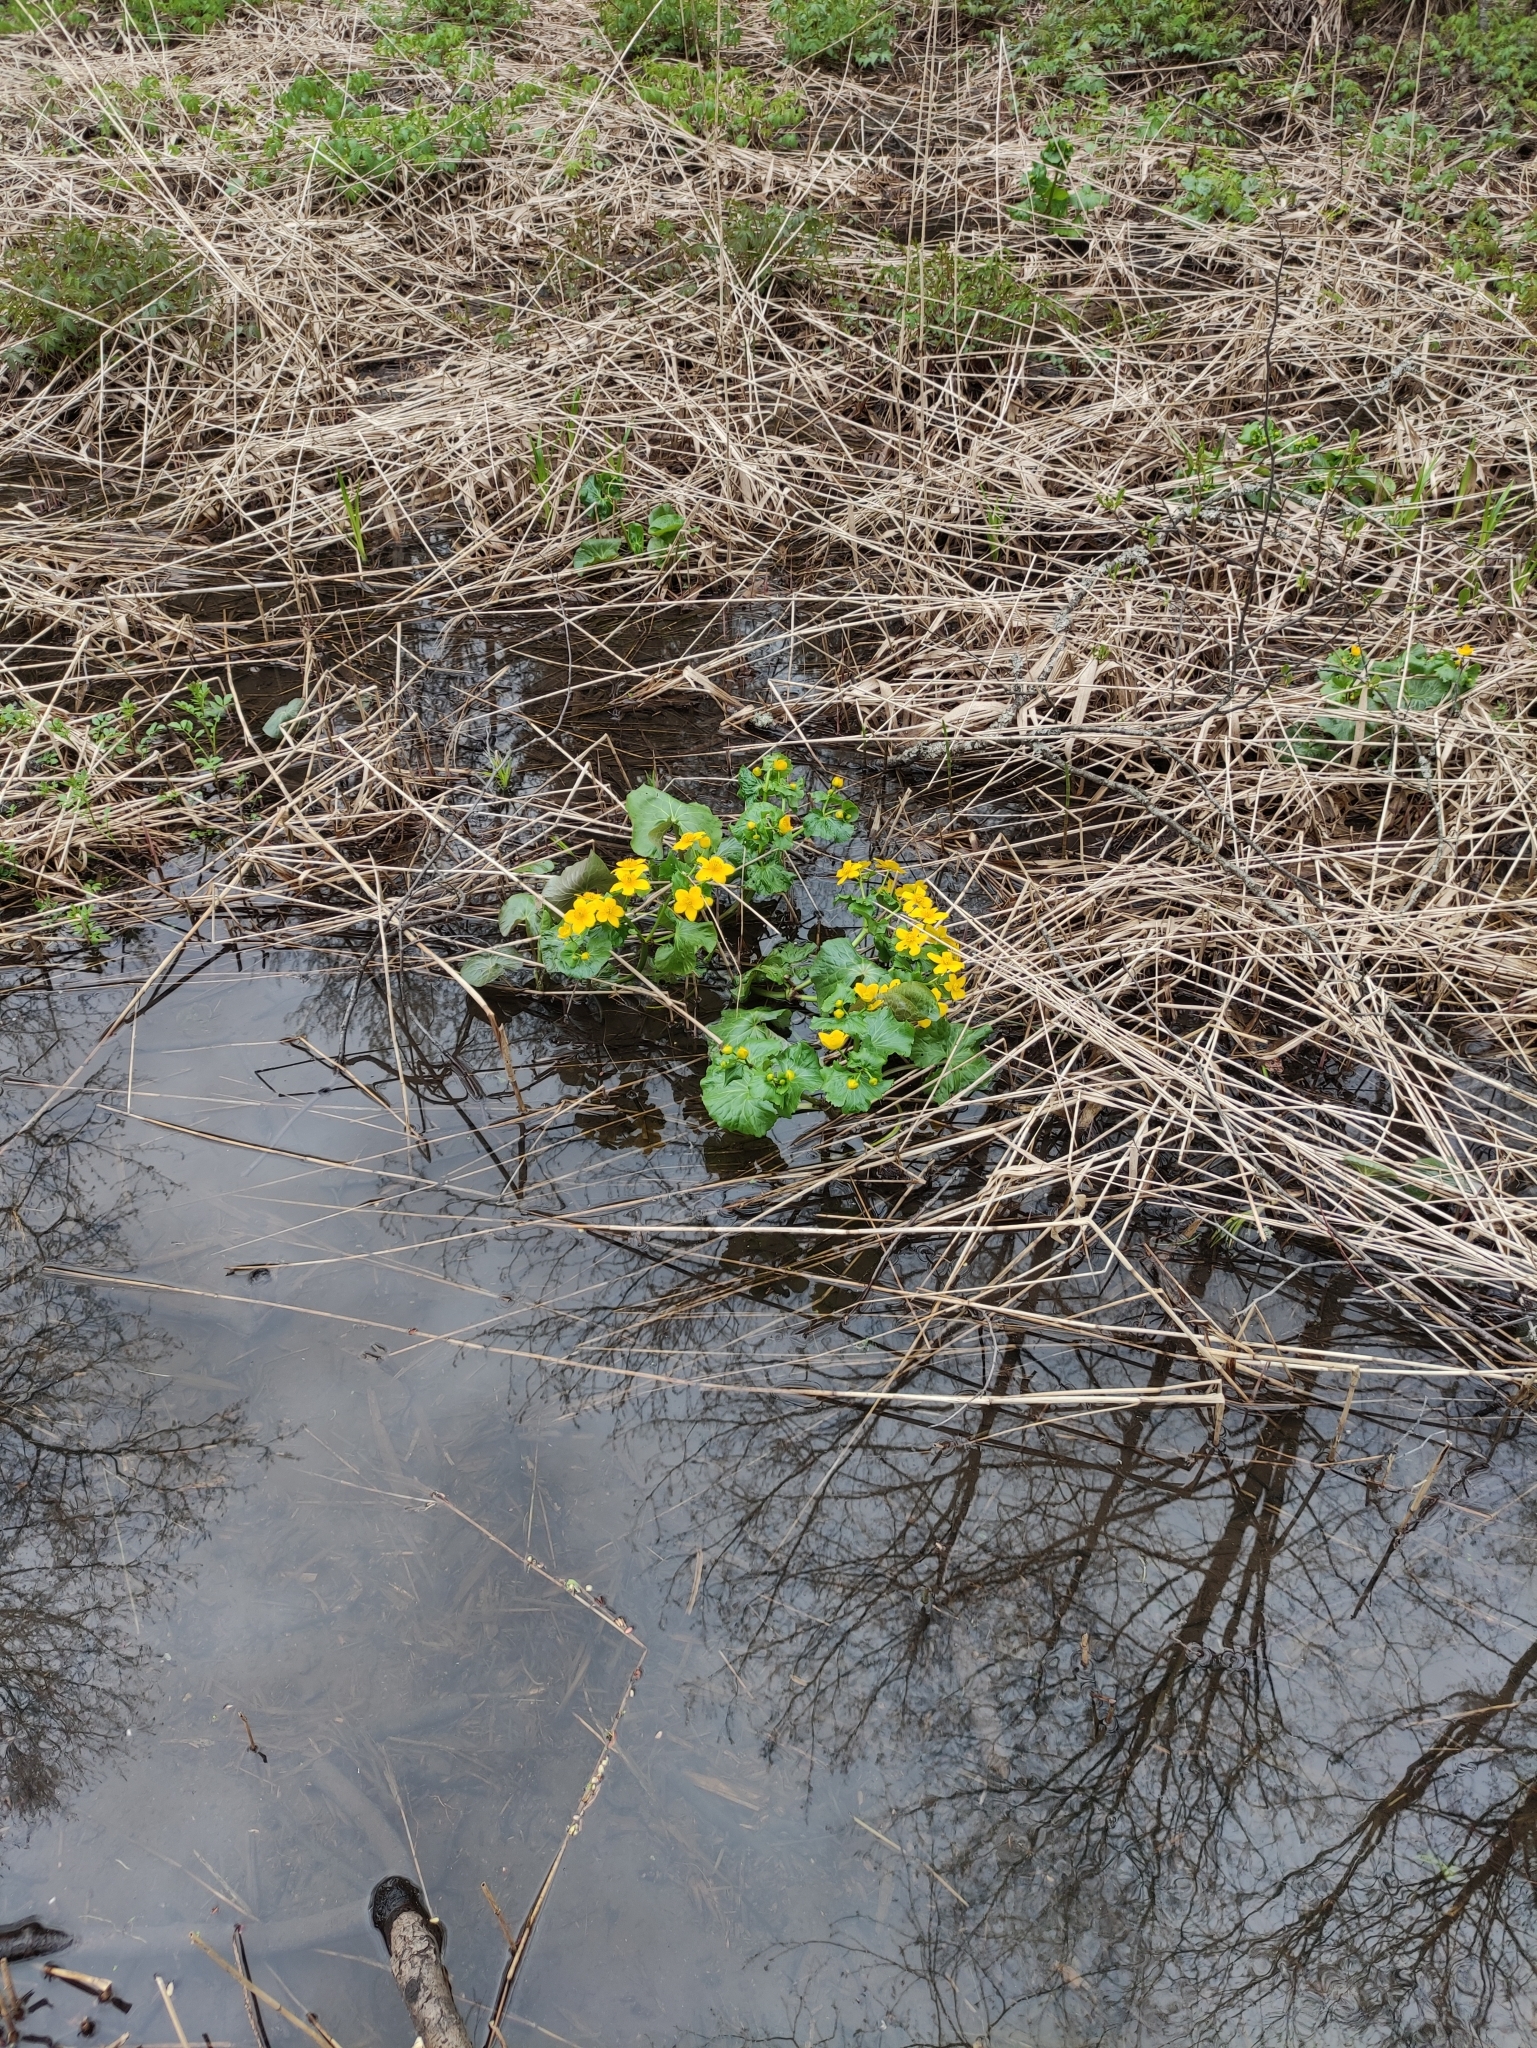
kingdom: Plantae
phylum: Tracheophyta
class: Magnoliopsida
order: Ranunculales
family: Ranunculaceae
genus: Caltha
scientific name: Caltha palustris
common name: Marsh marigold
